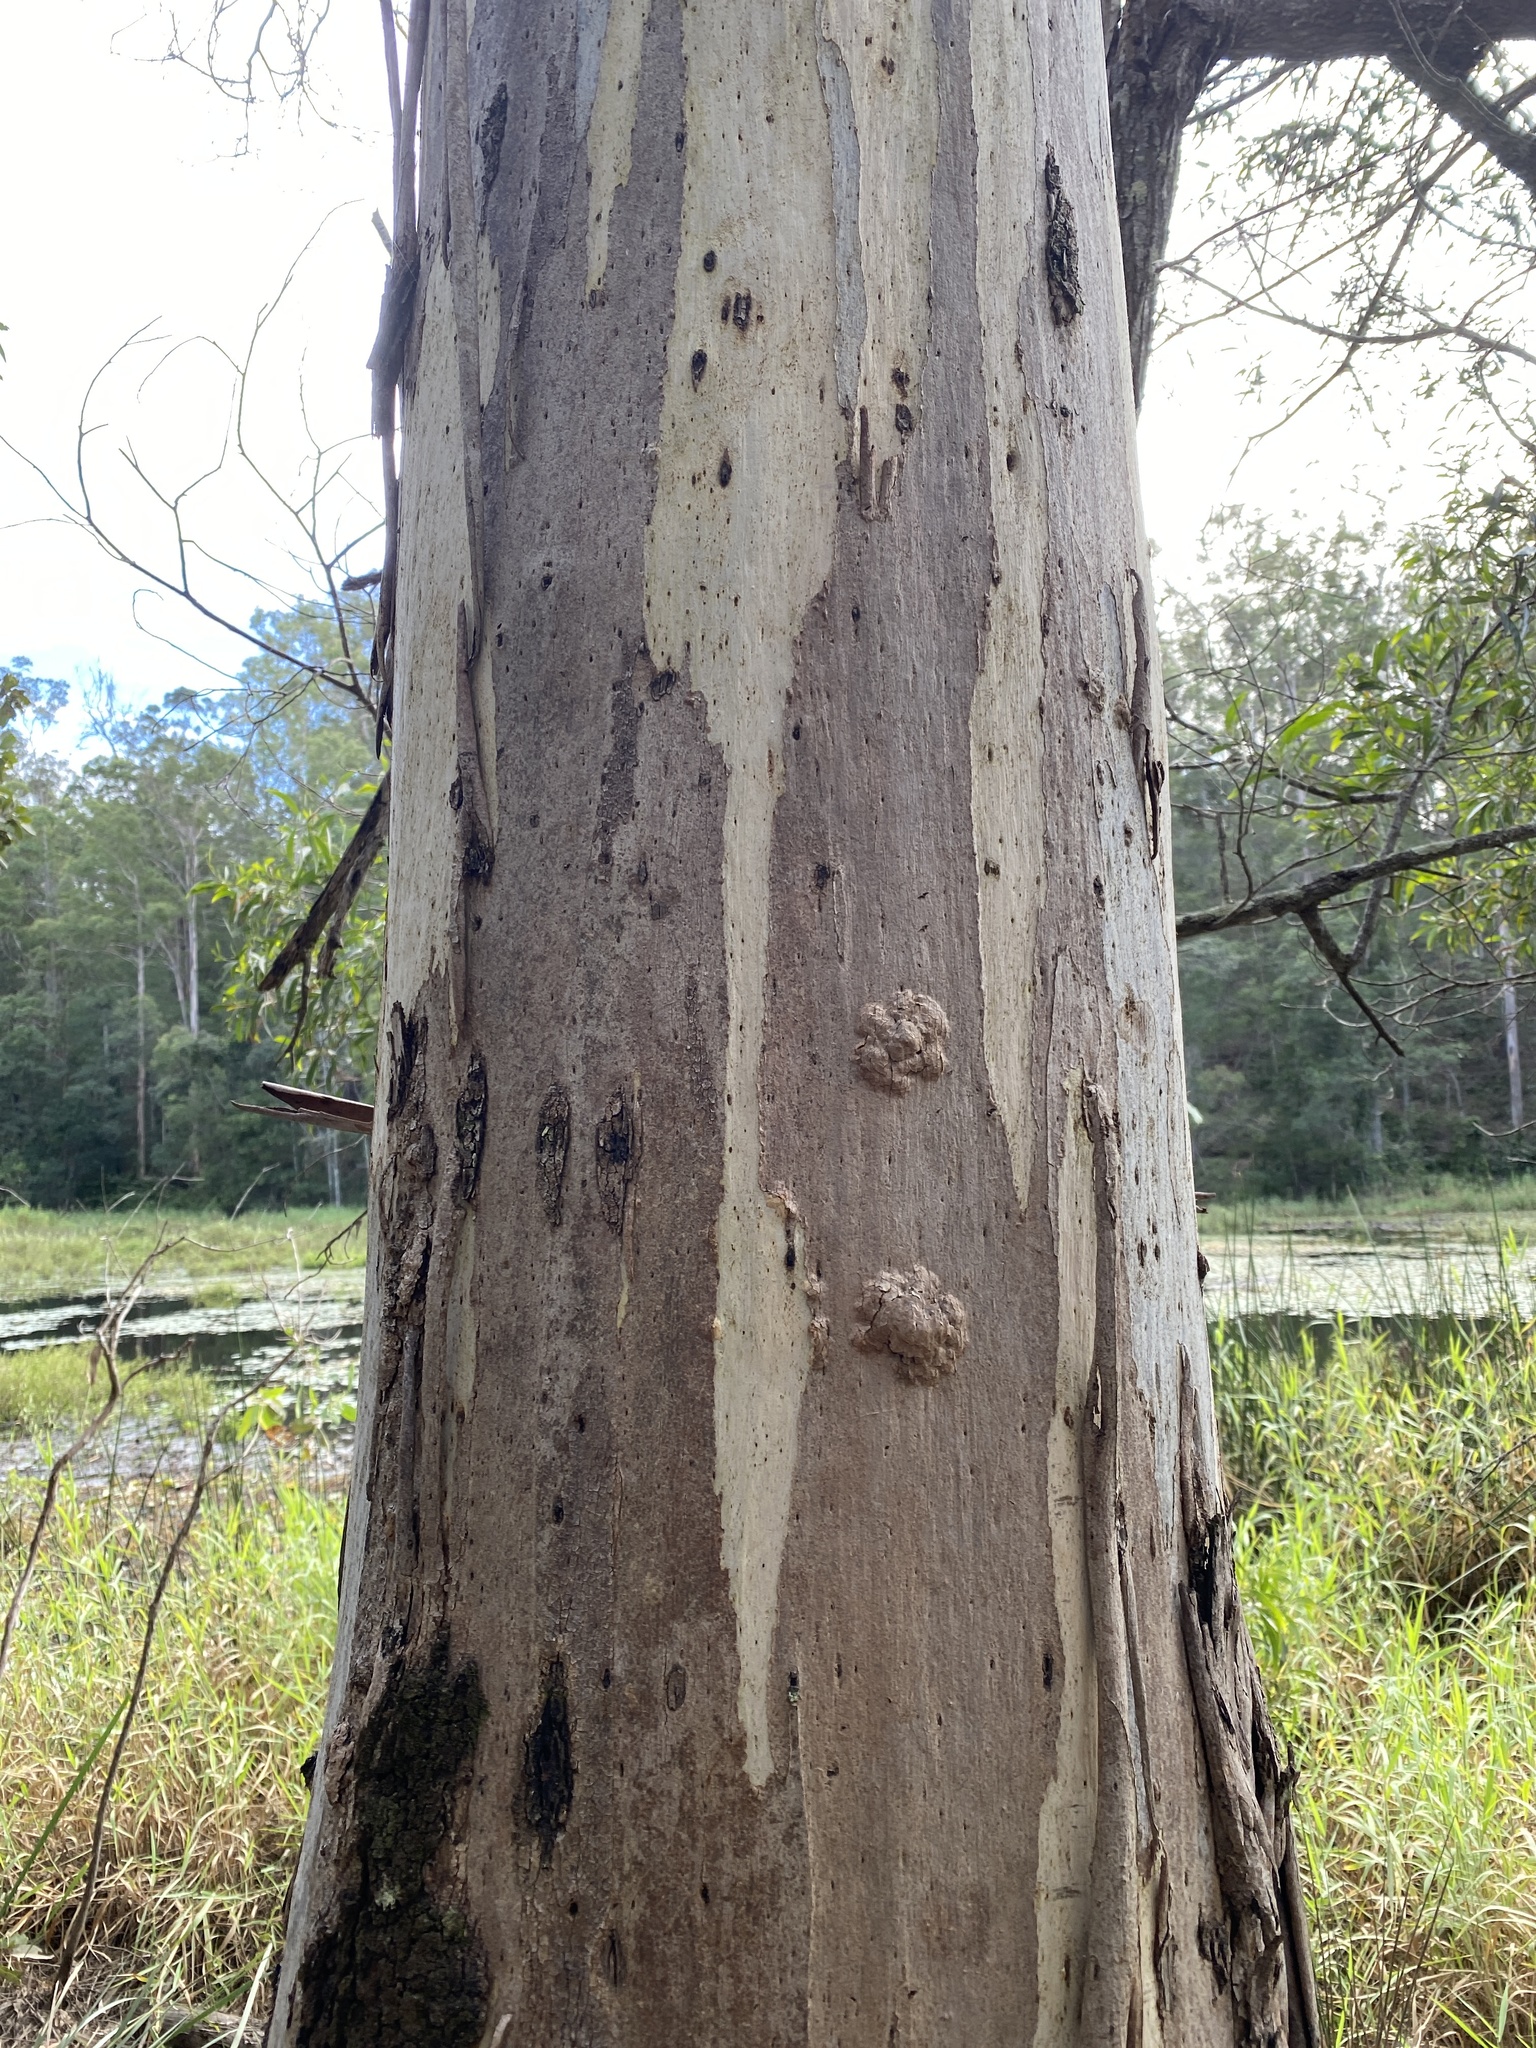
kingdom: Plantae
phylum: Tracheophyta
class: Magnoliopsida
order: Myrtales
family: Myrtaceae
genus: Eucalyptus
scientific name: Eucalyptus tereticornis
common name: Forest redgum
